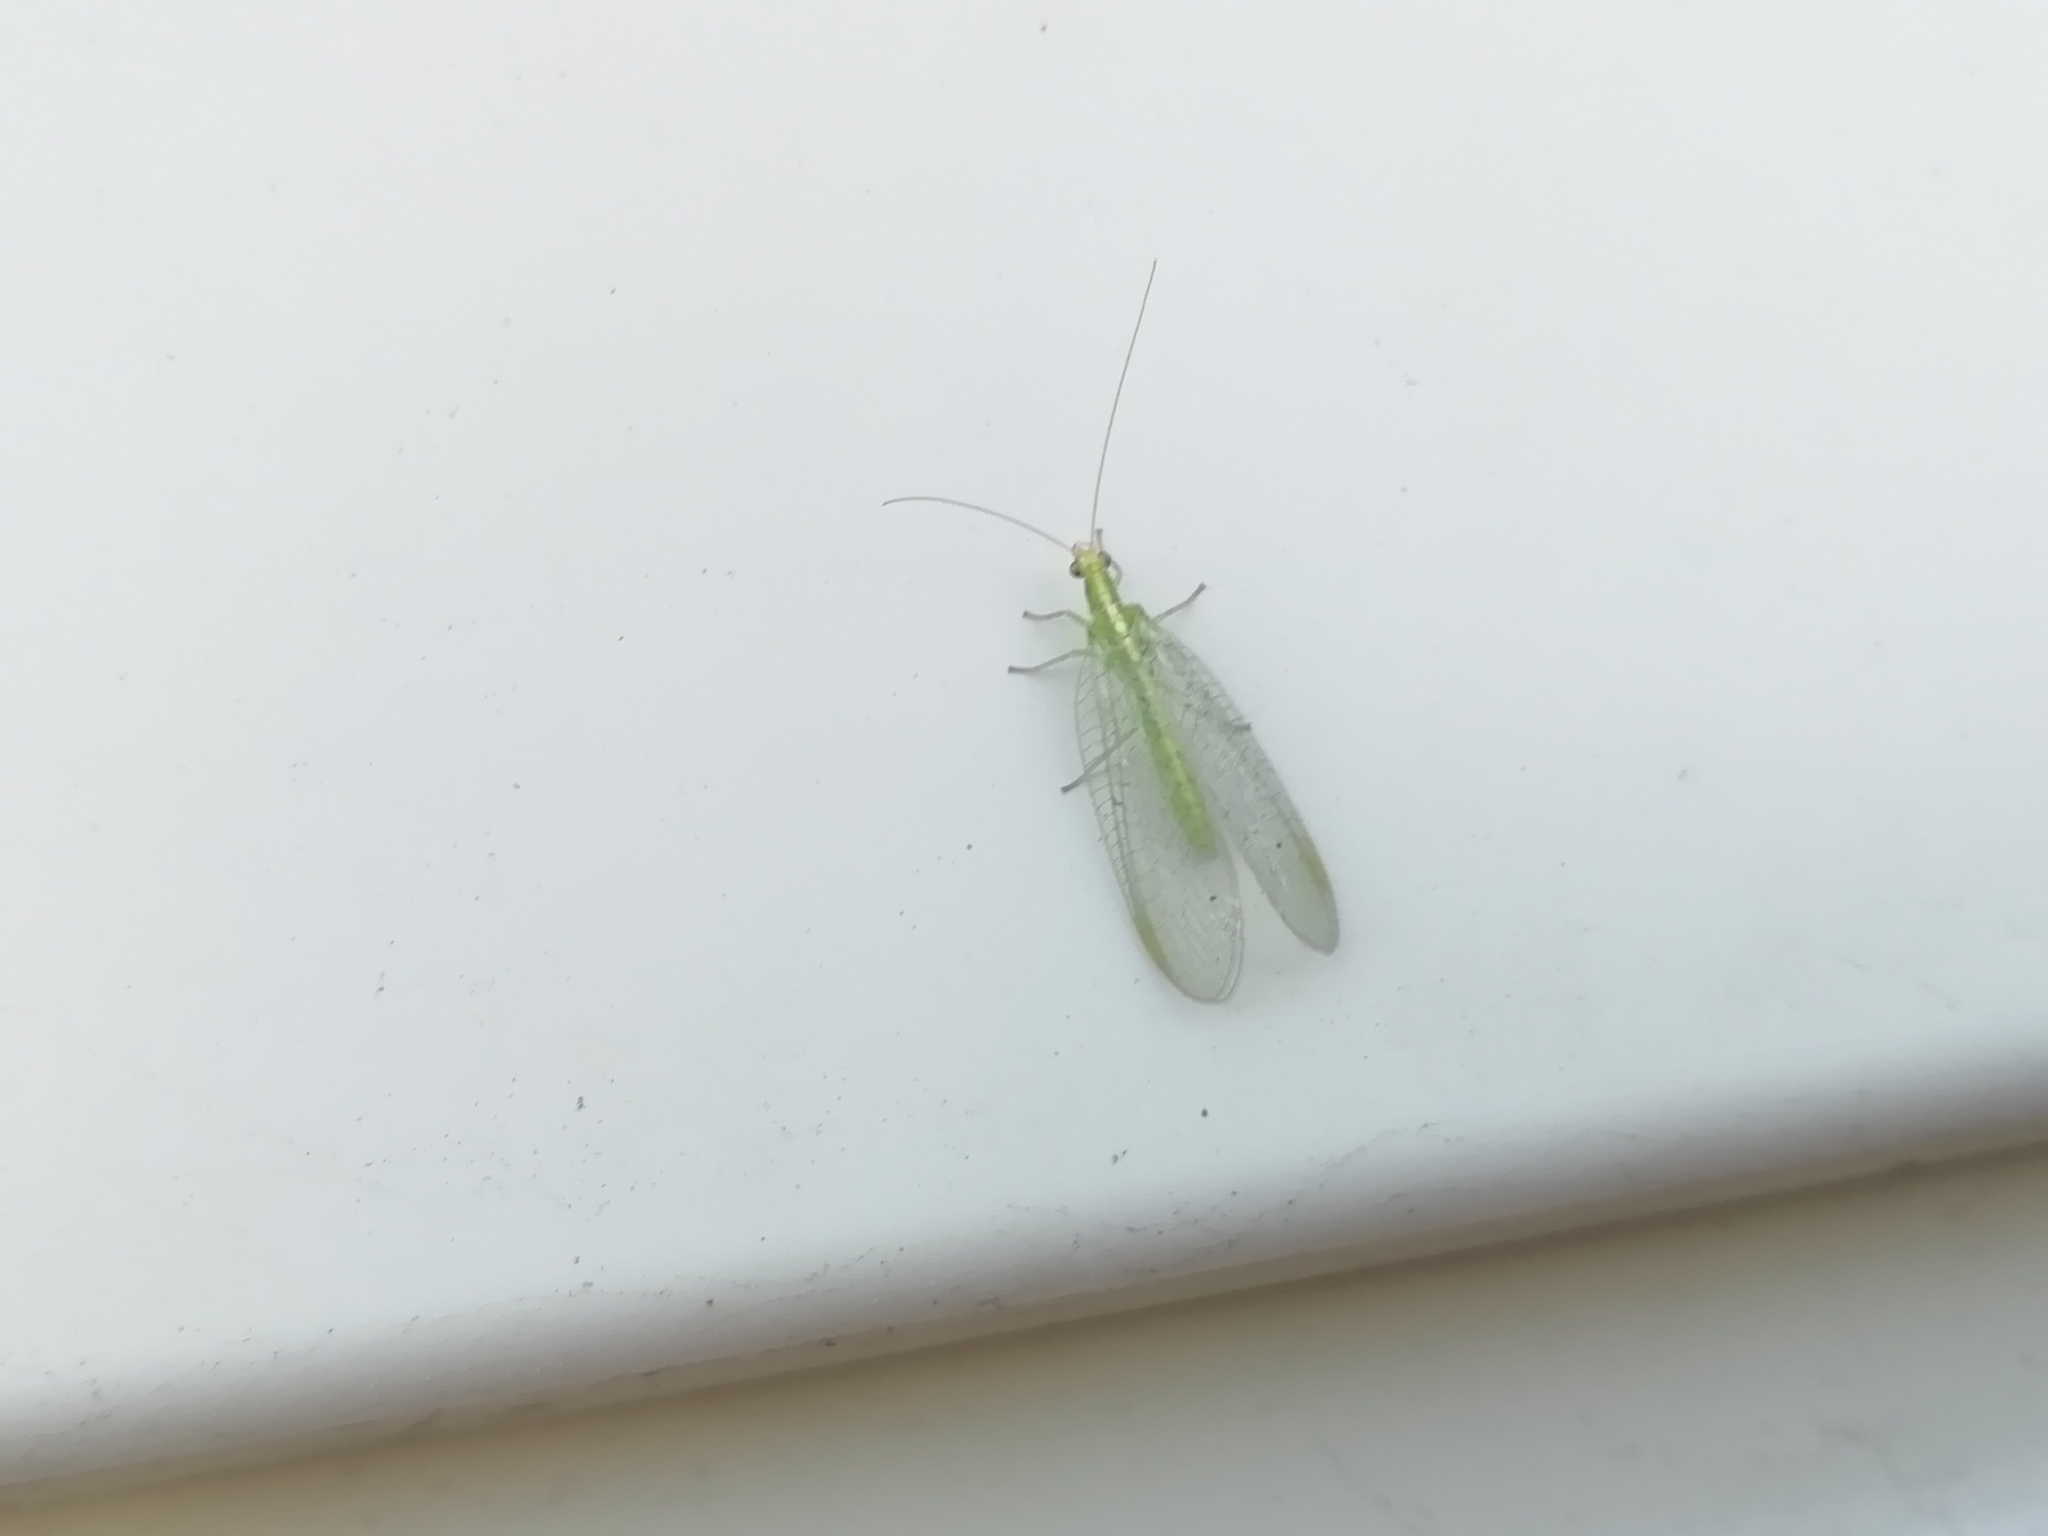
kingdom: Animalia
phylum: Arthropoda
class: Insecta
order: Neuroptera
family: Chrysopidae
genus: Chrysoperla
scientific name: Chrysoperla
